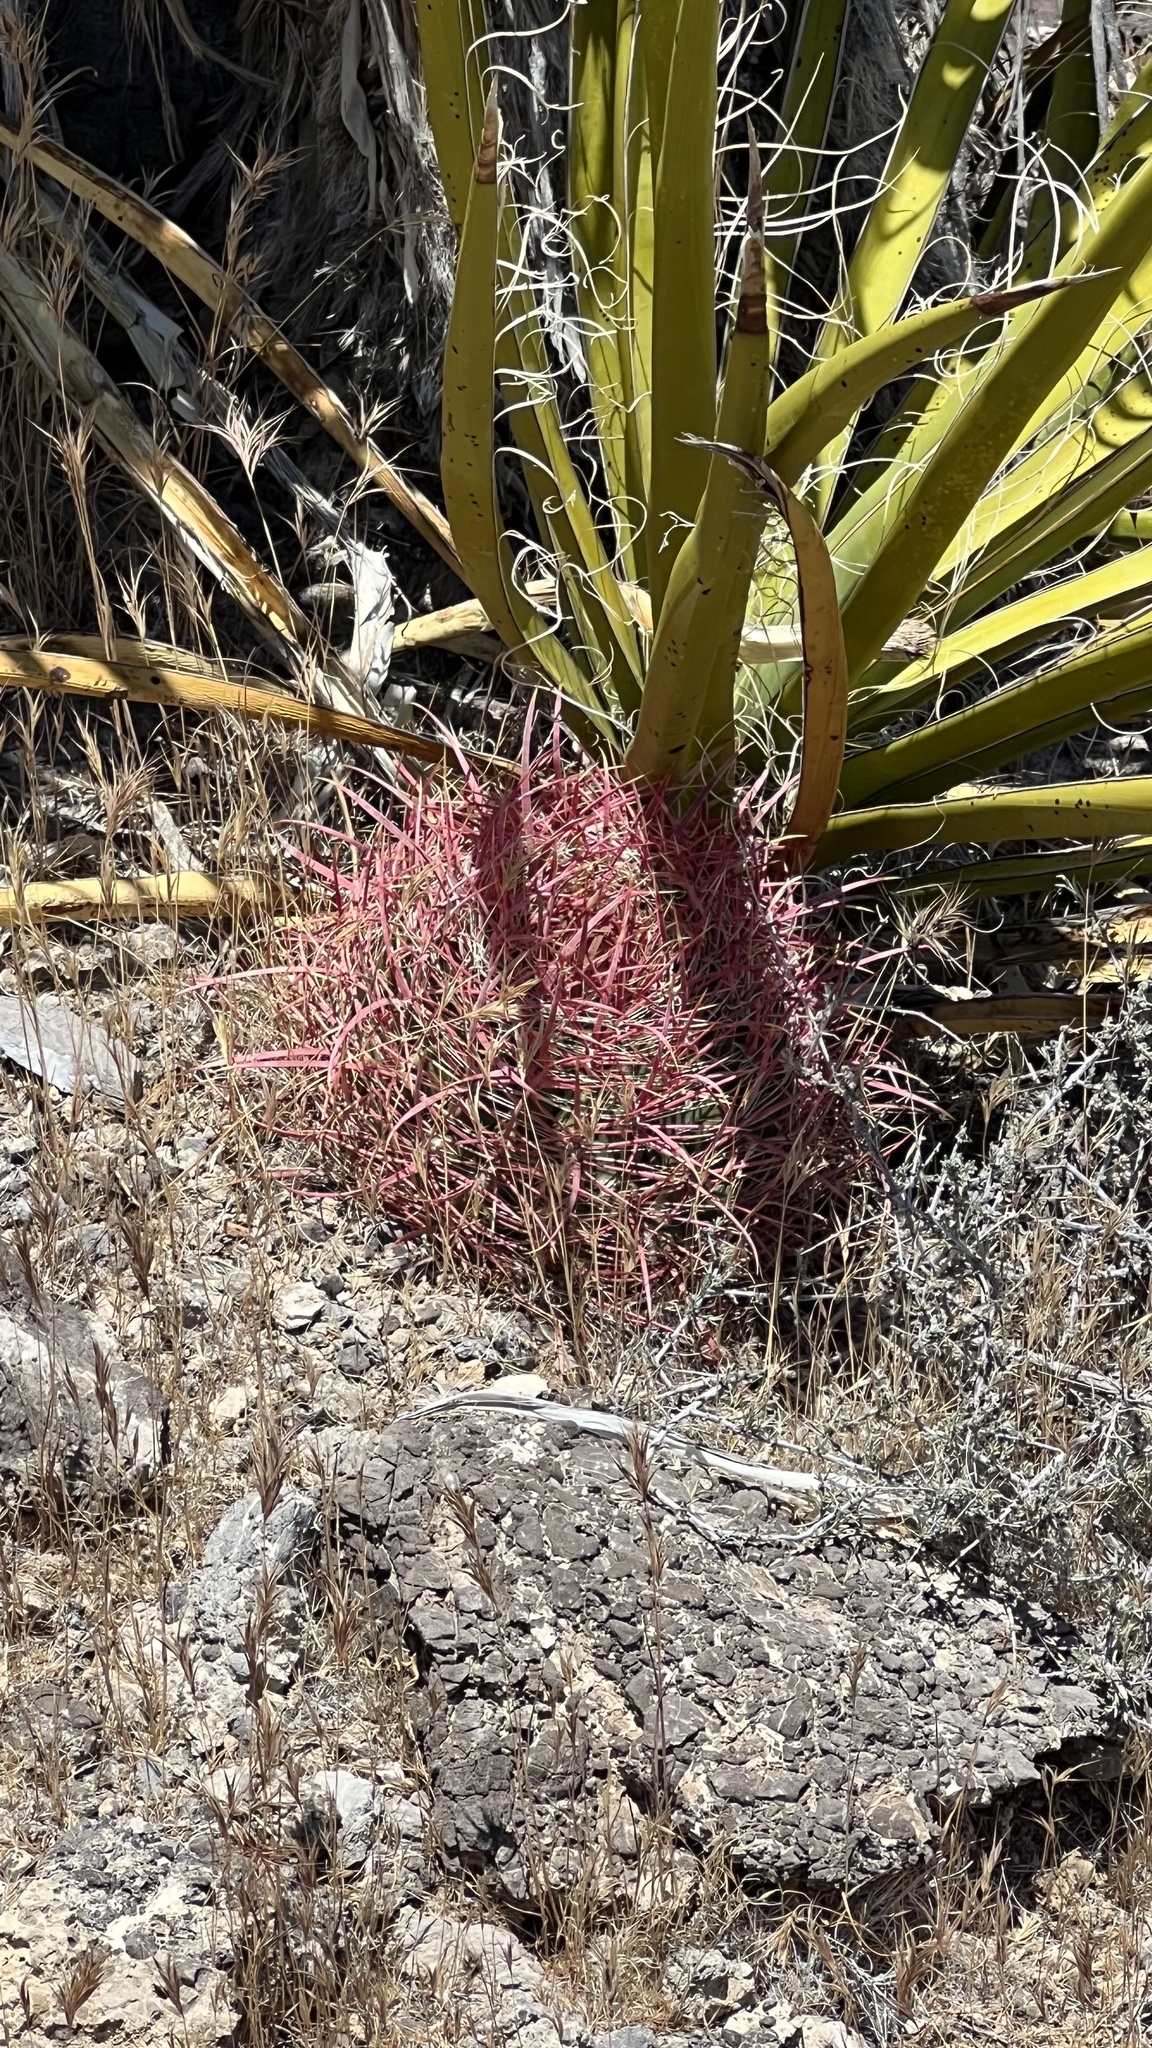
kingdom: Plantae
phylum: Tracheophyta
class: Magnoliopsida
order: Caryophyllales
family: Cactaceae
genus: Ferocactus
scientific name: Ferocactus cylindraceus
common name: California barrel cactus
